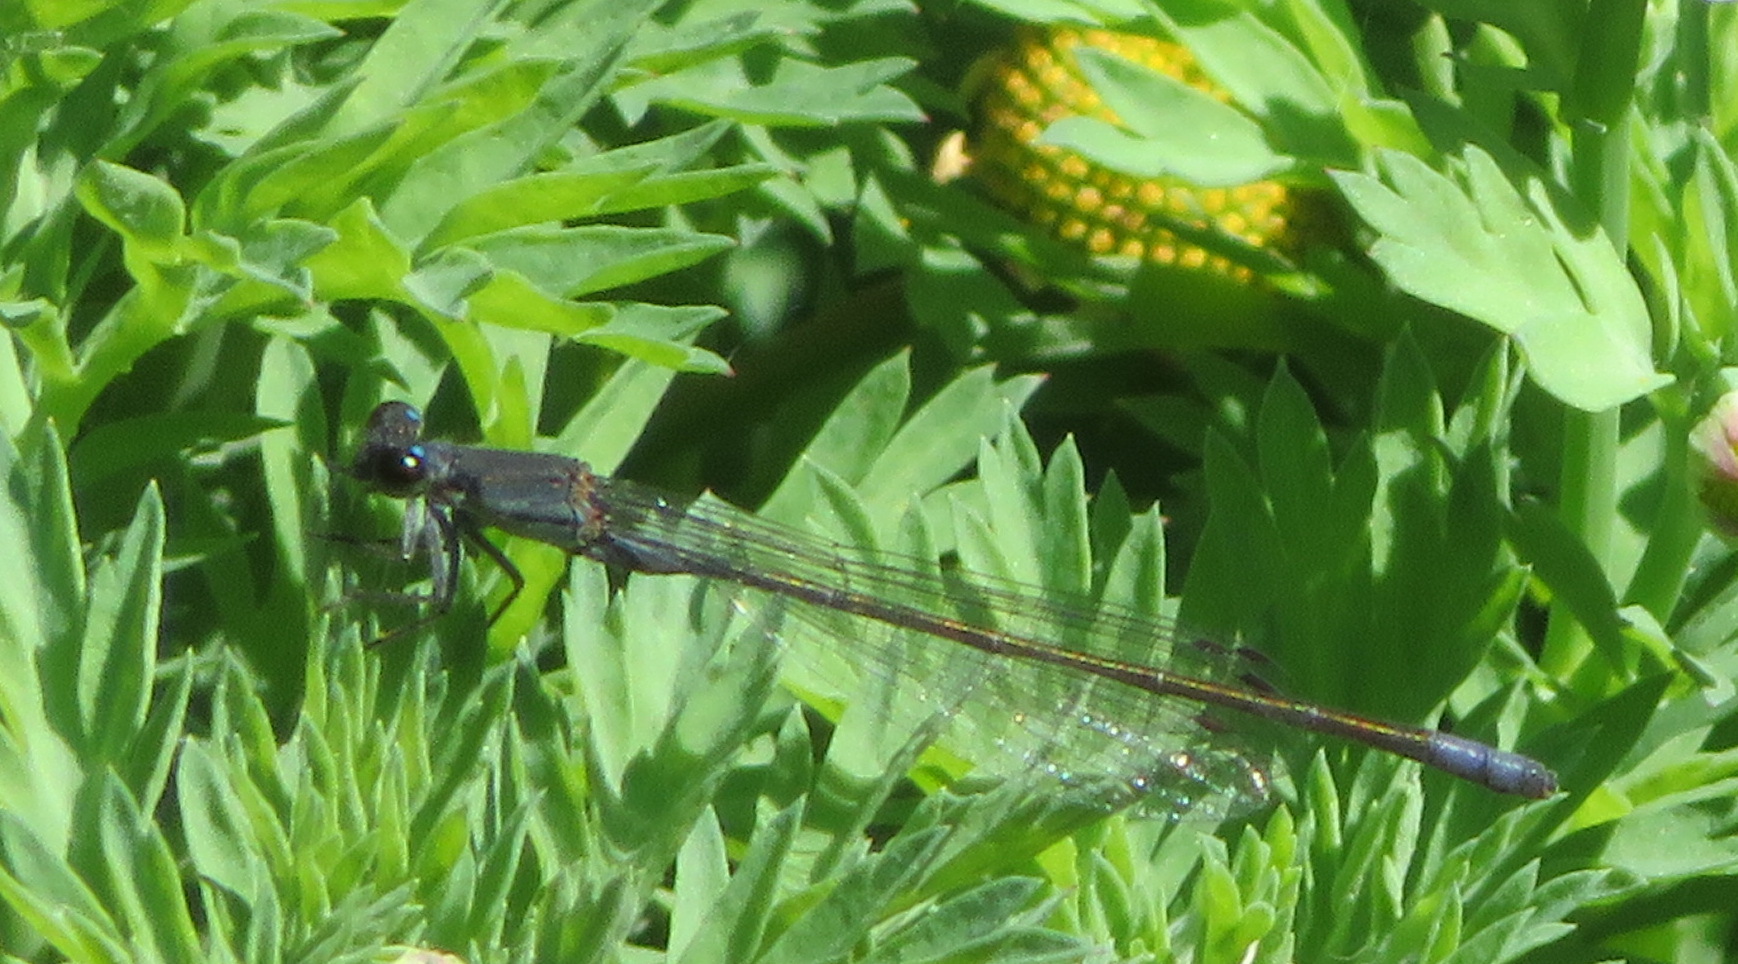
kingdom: Animalia
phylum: Arthropoda
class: Insecta
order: Odonata
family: Coenagrionidae
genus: Pseudagrion
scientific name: Pseudagrion salisburyense
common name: Slate sprite
